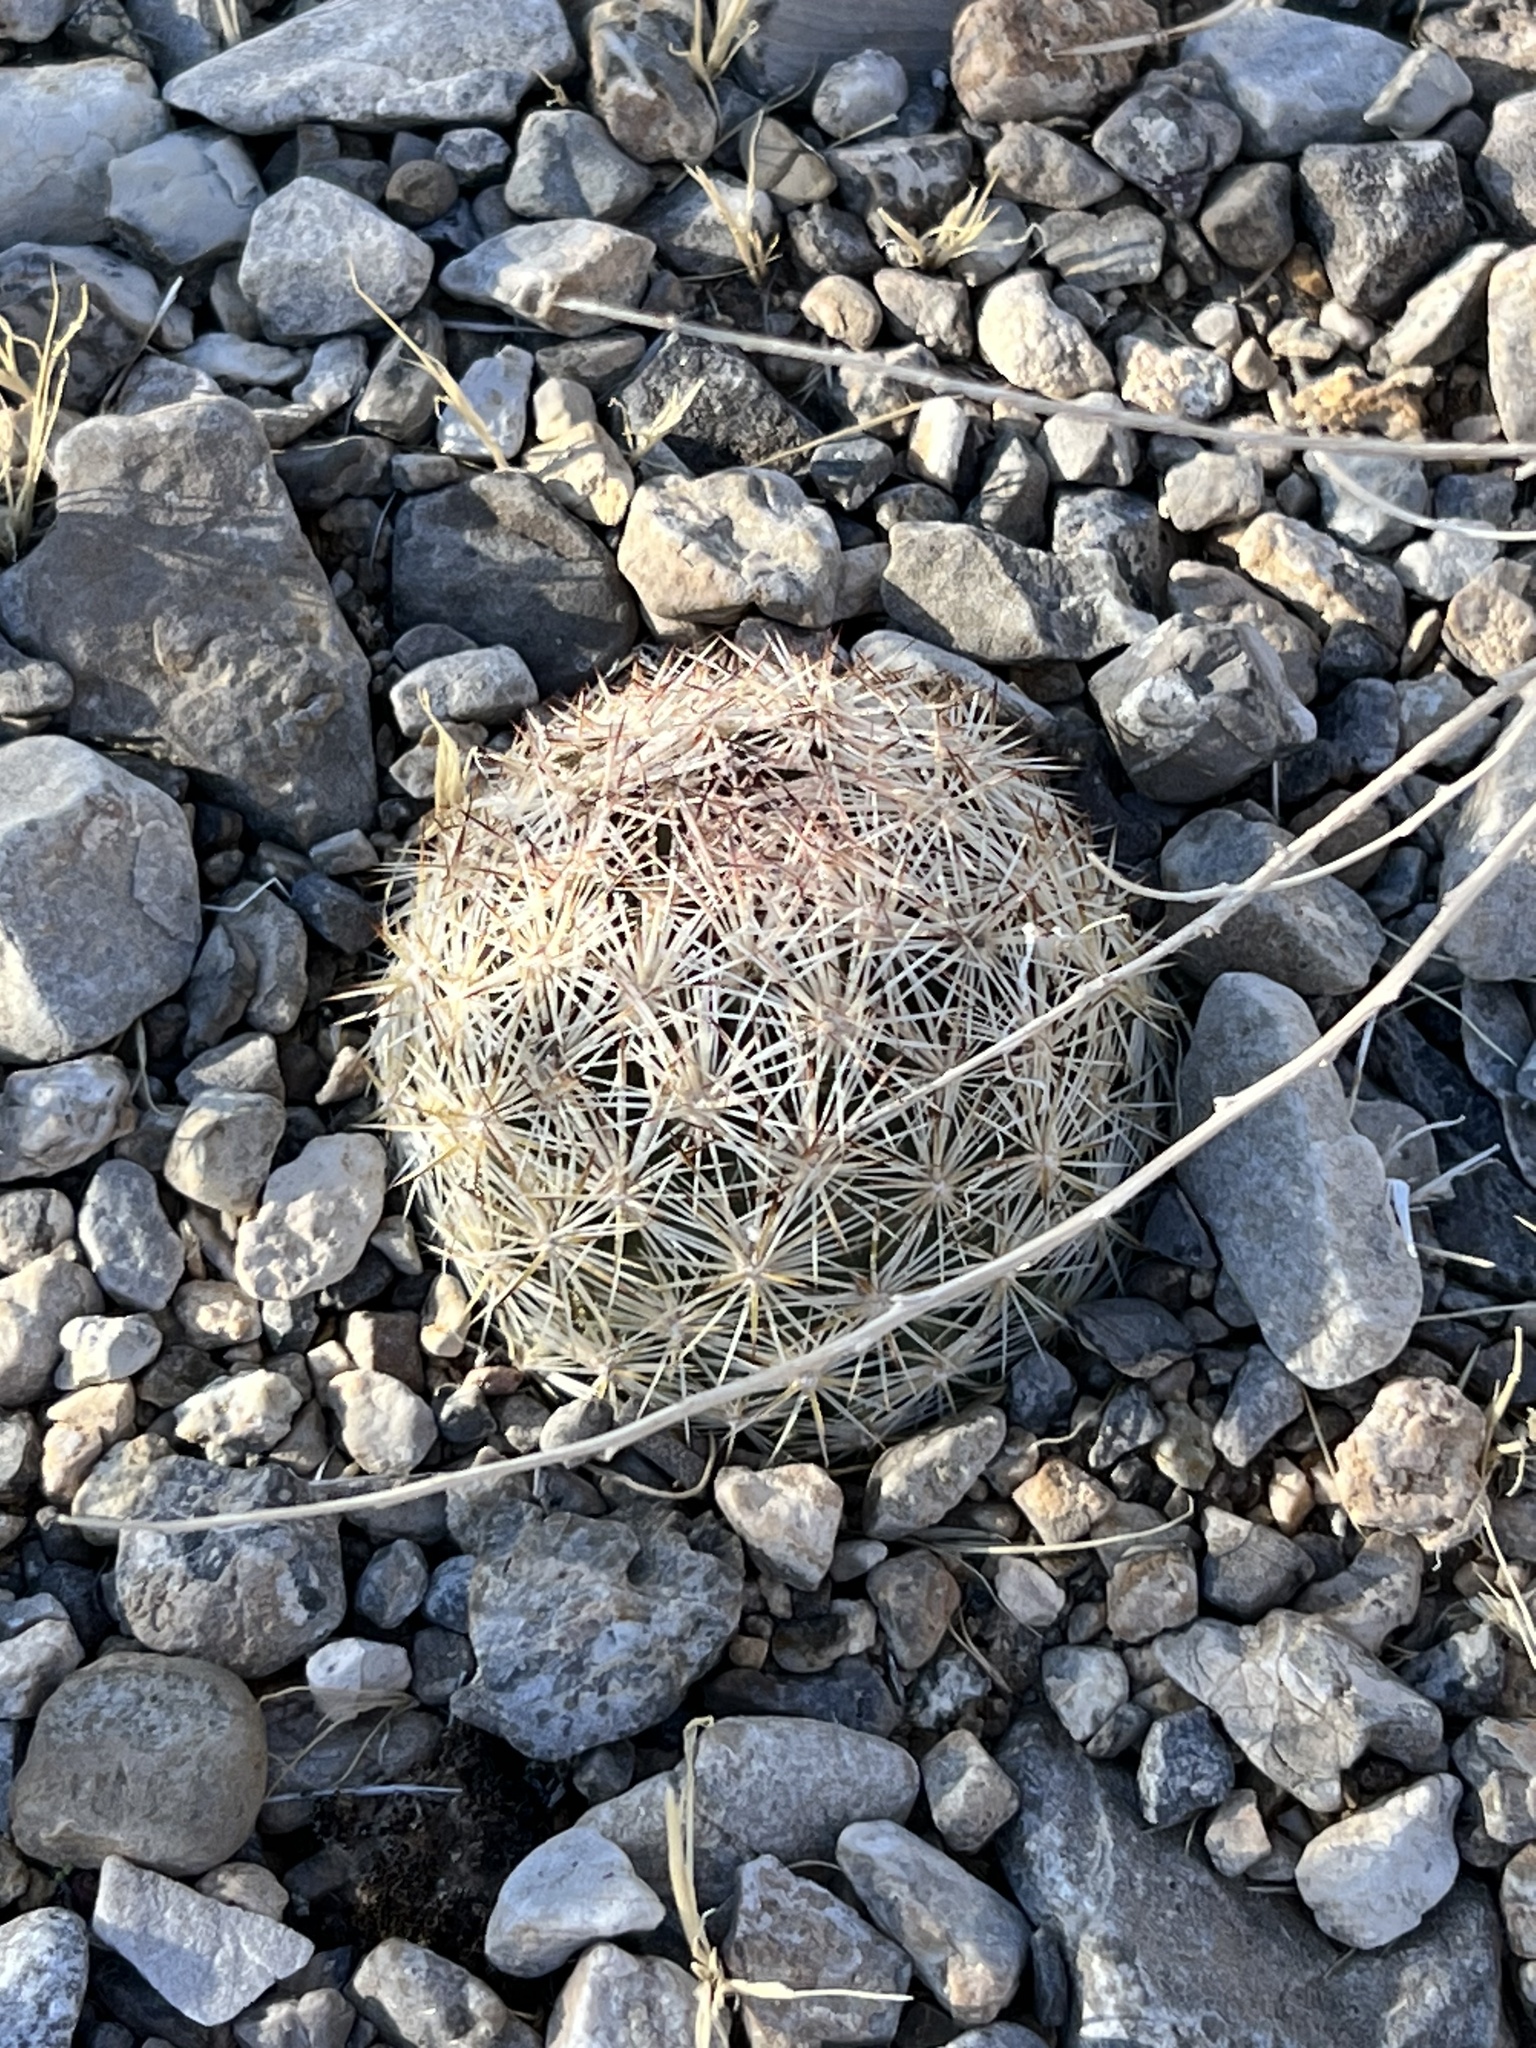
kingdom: Plantae
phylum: Tracheophyta
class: Magnoliopsida
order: Caryophyllales
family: Cactaceae
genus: Pelecyphora
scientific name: Pelecyphora dasyacantha
